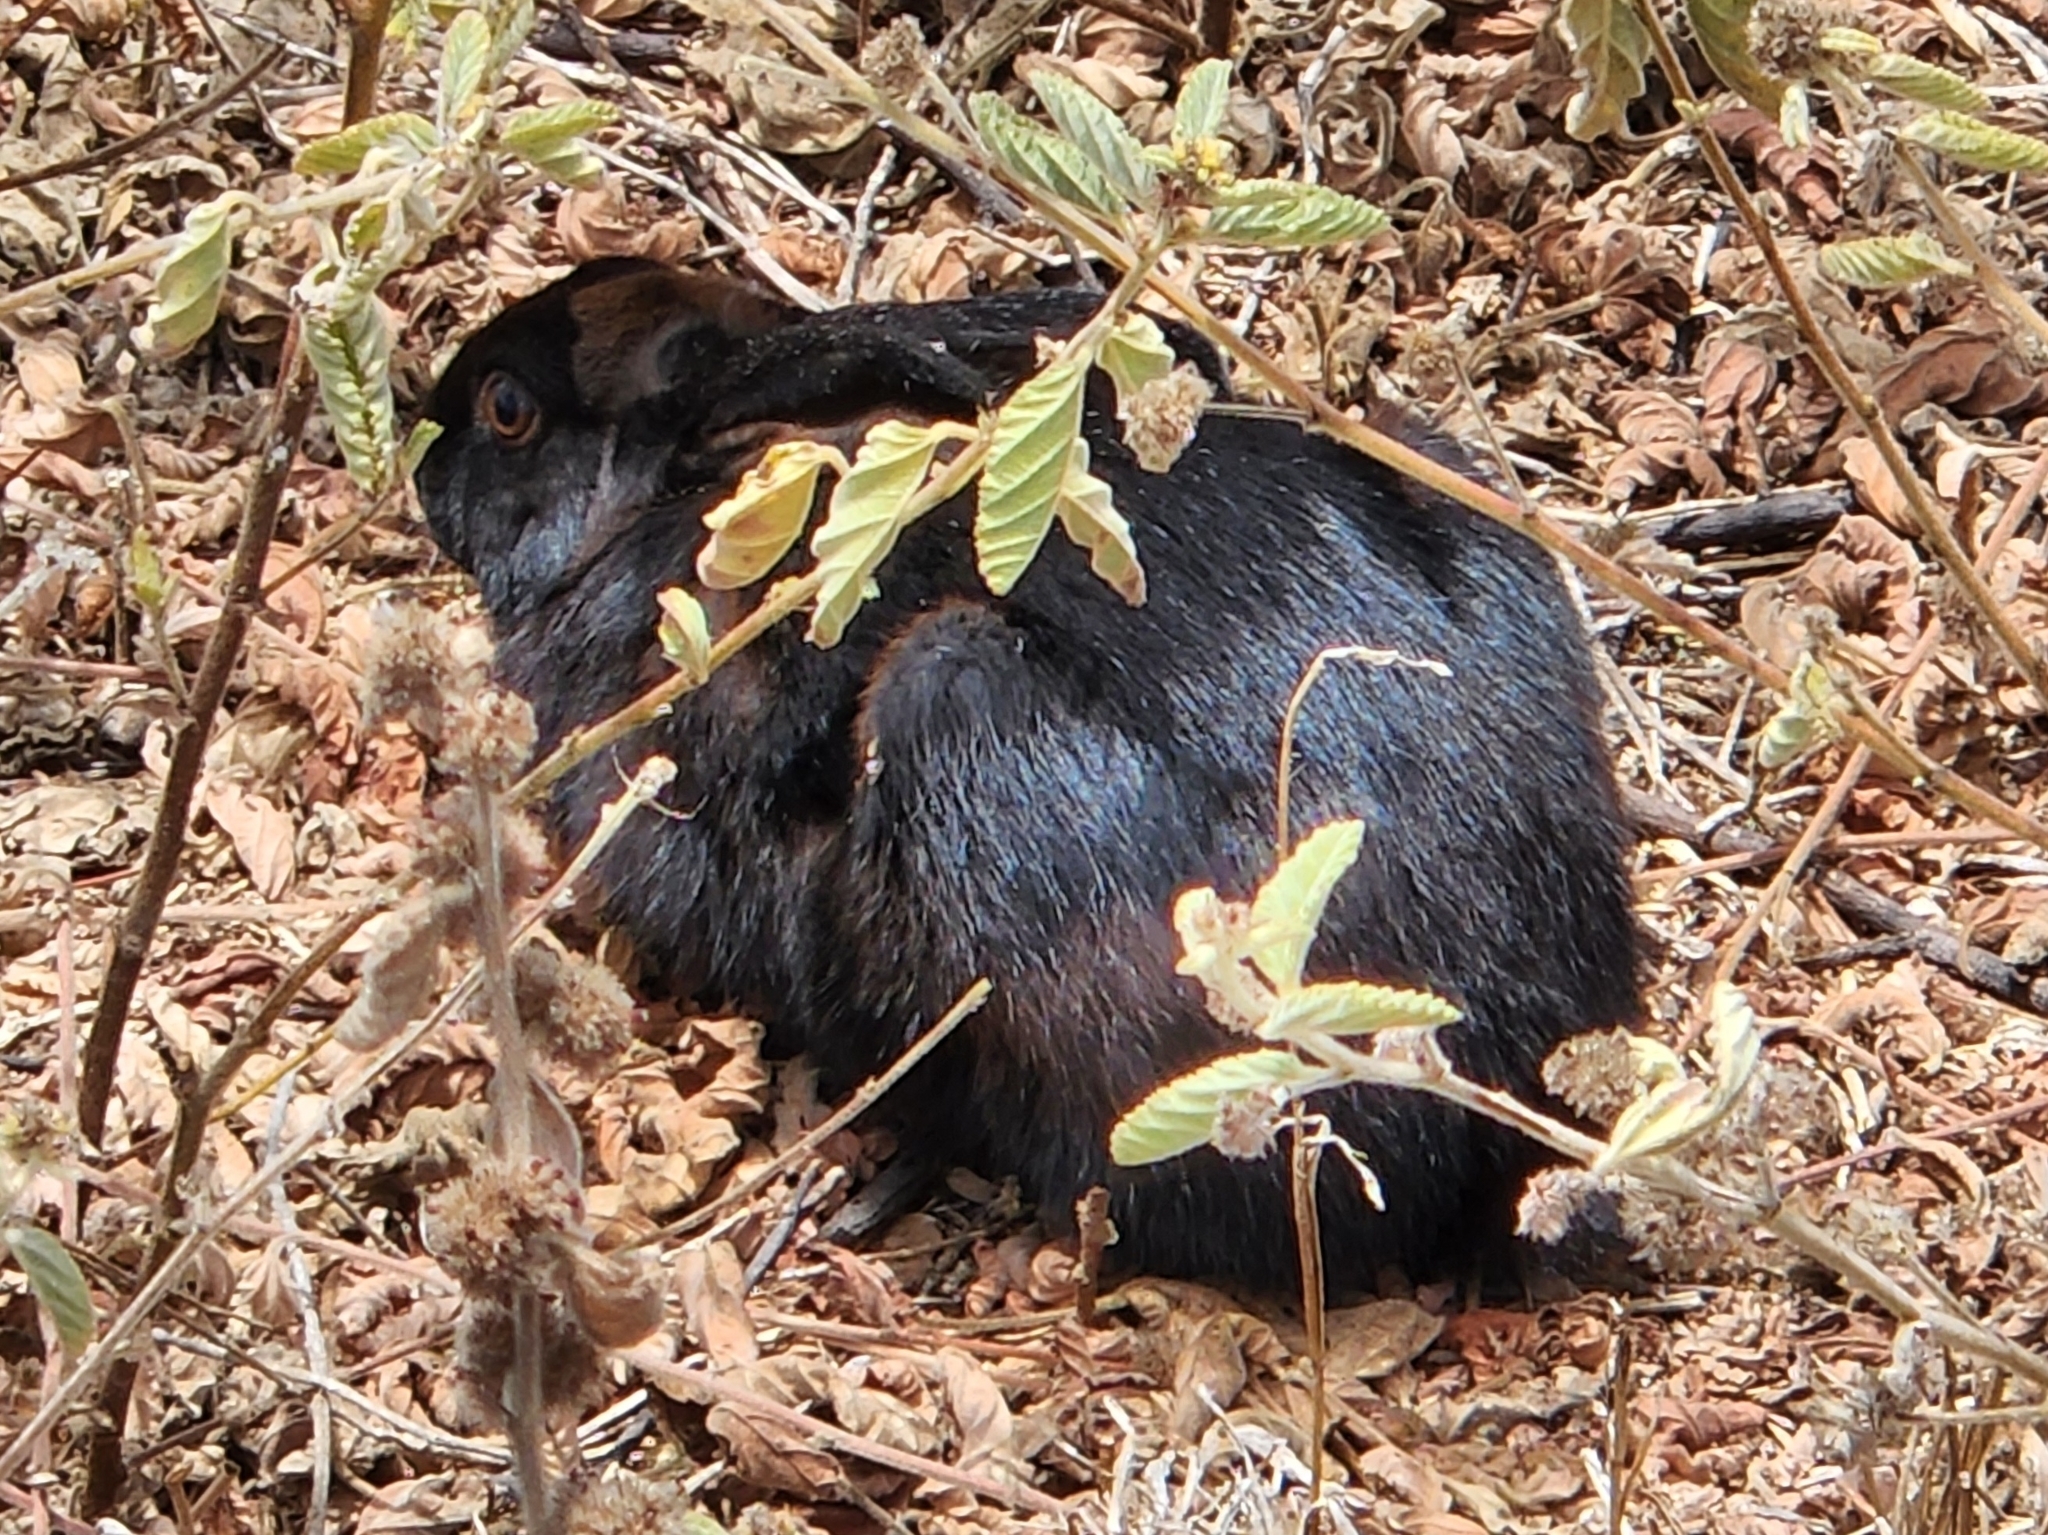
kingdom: Animalia
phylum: Chordata
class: Mammalia
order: Lagomorpha
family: Leporidae
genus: Oryctolagus
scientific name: Oryctolagus cuniculus
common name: European rabbit
